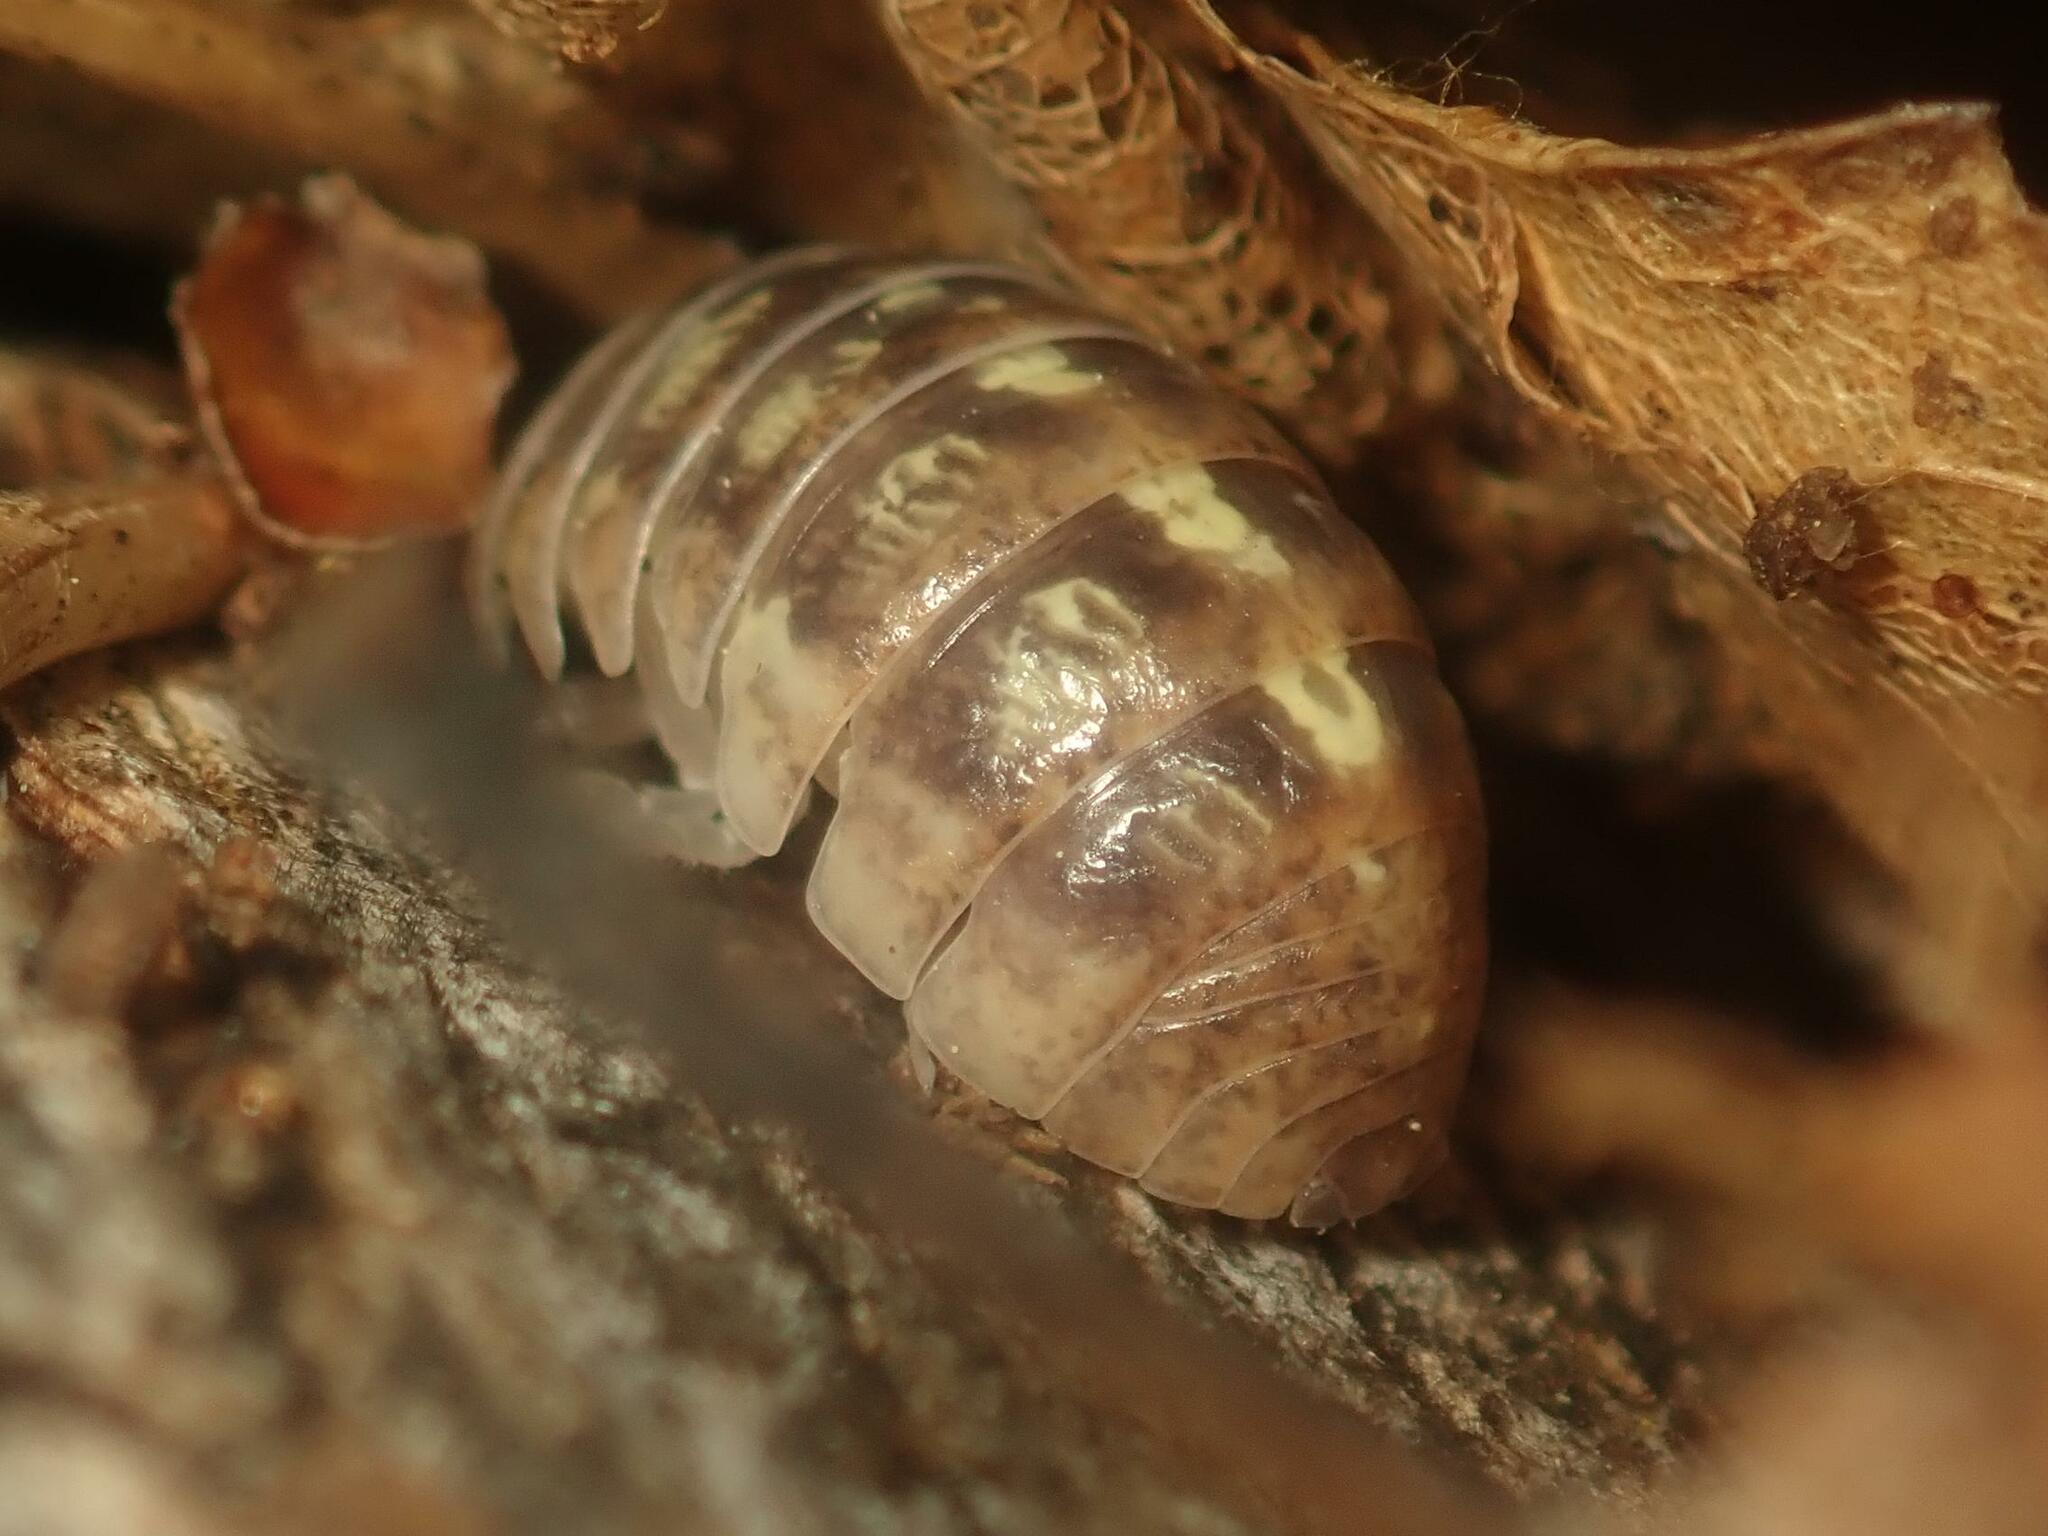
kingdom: Animalia
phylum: Arthropoda
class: Malacostraca
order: Isopoda
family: Armadillidiidae
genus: Armadillidium
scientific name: Armadillidium vulgare
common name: Common pill woodlouse
